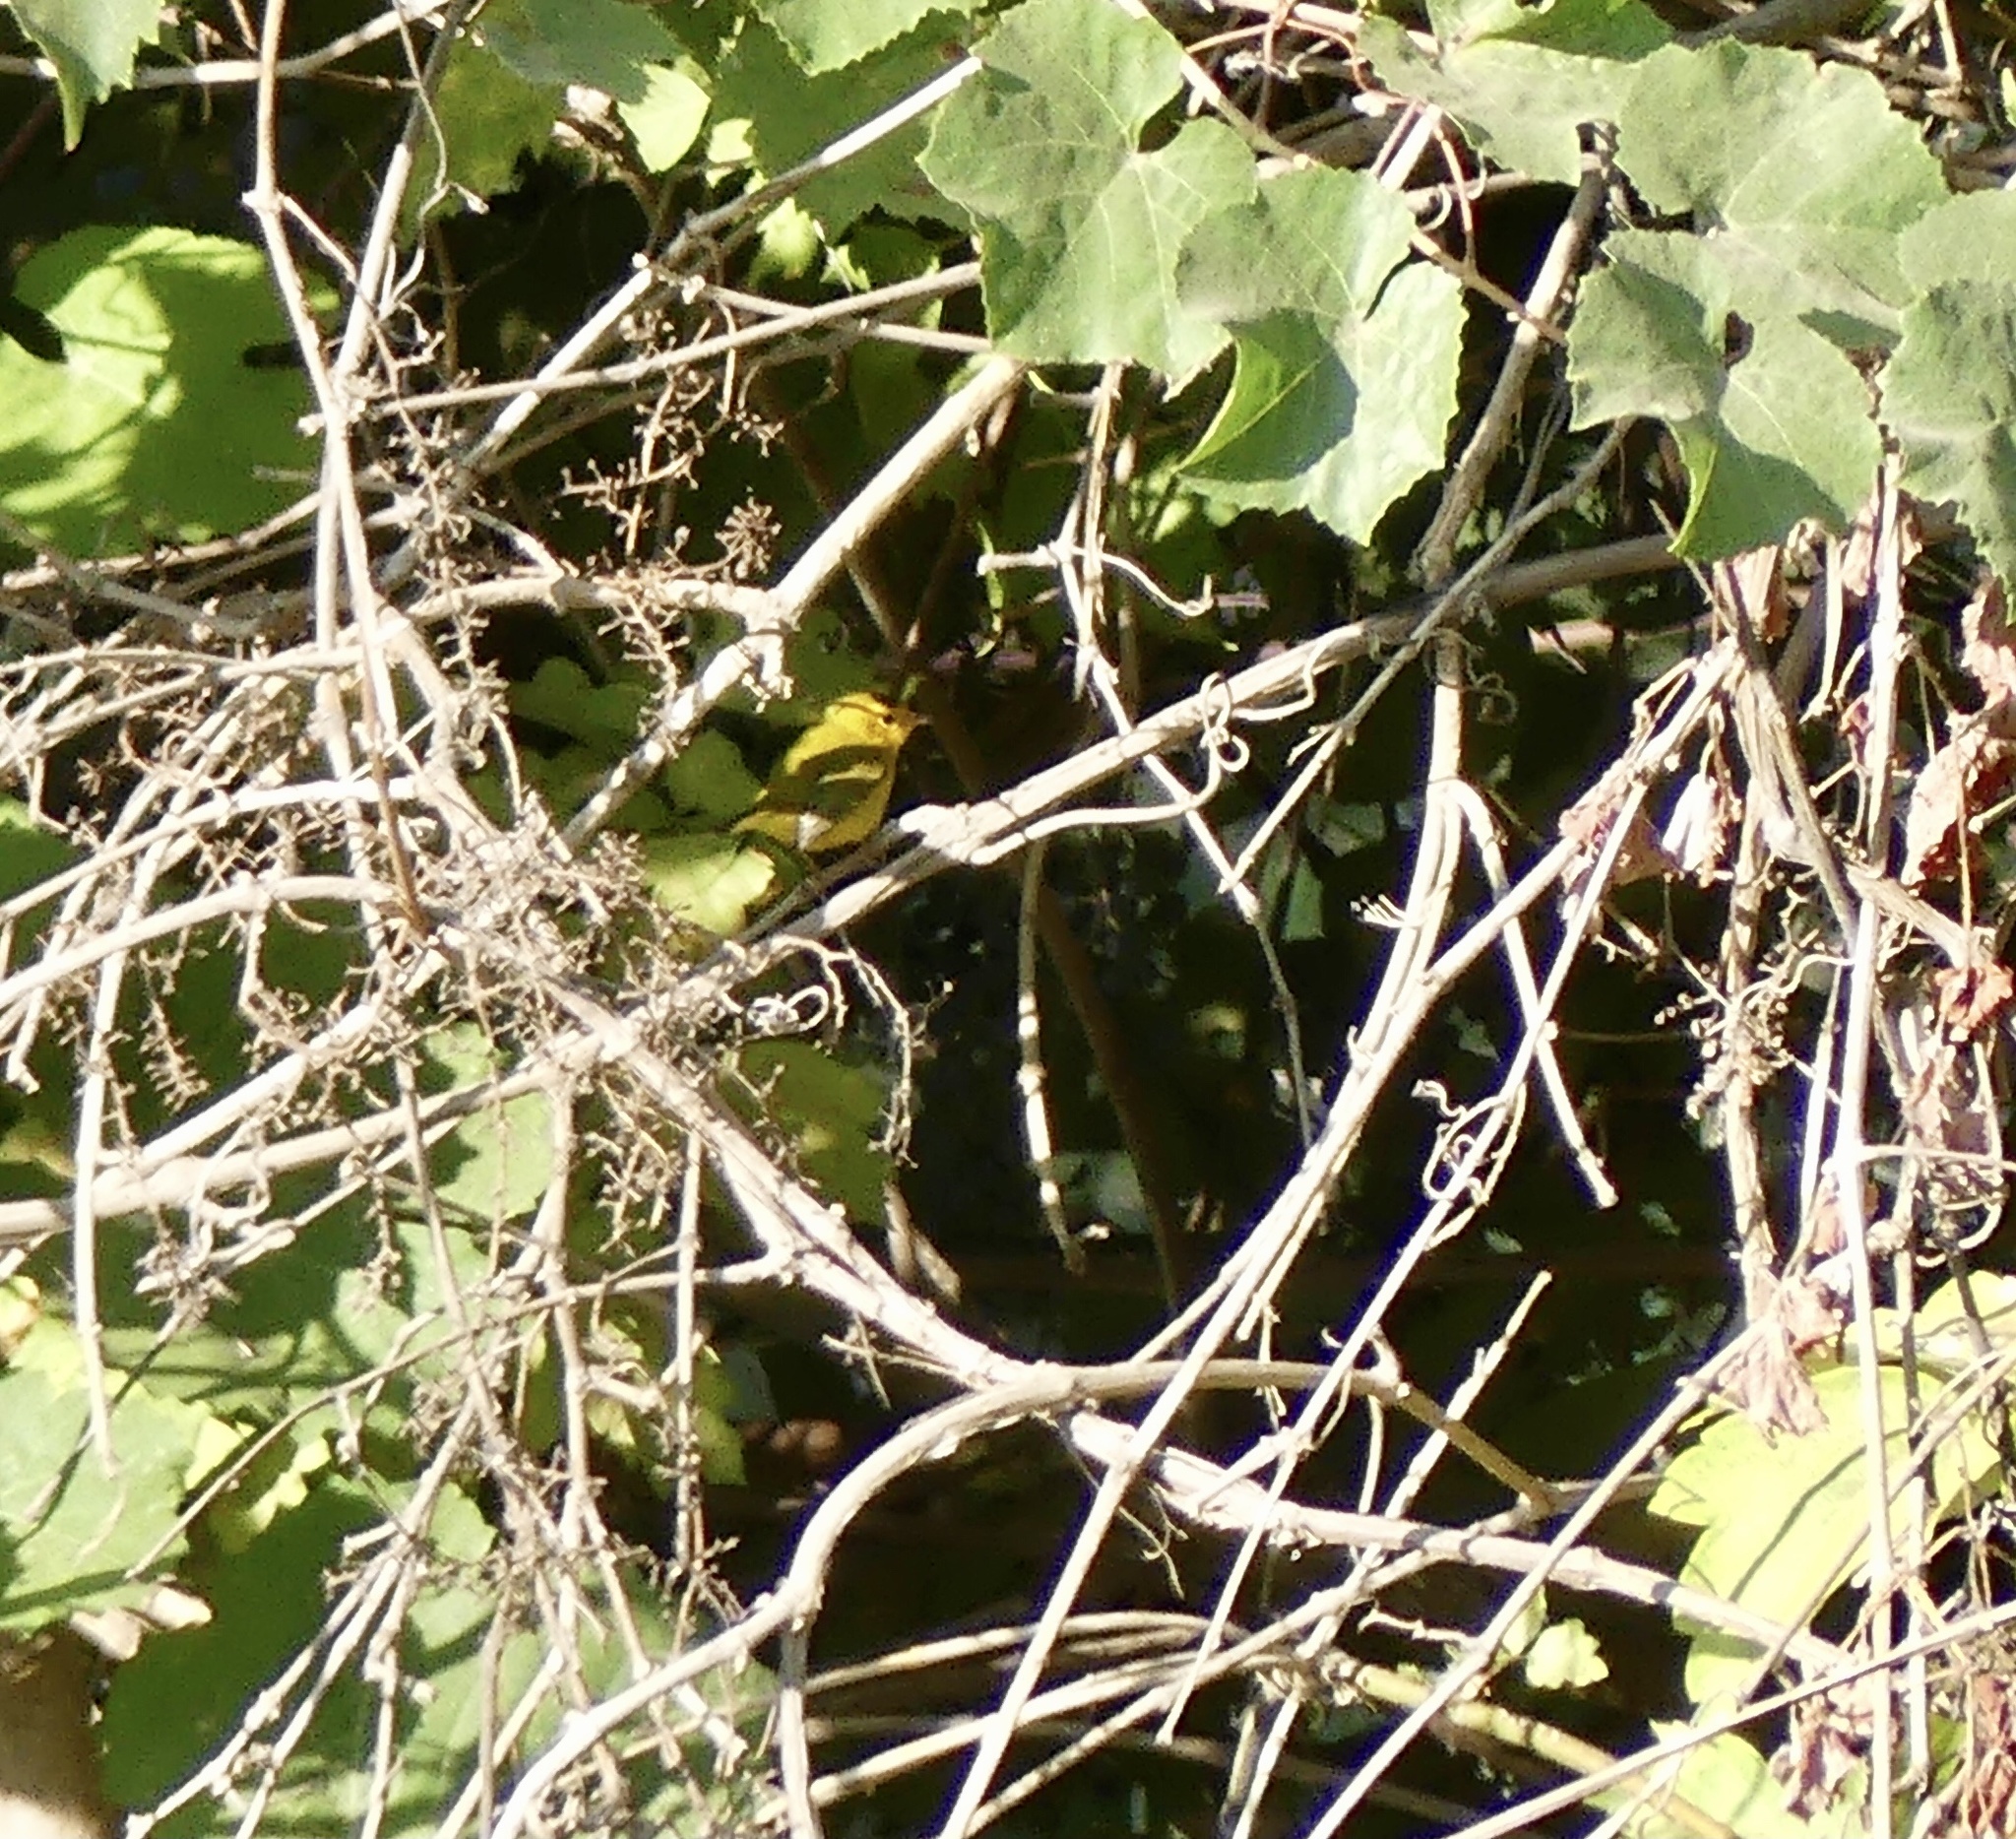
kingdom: Animalia
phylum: Chordata
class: Aves
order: Passeriformes
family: Parulidae
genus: Cardellina
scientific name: Cardellina pusilla
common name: Wilson's warbler
